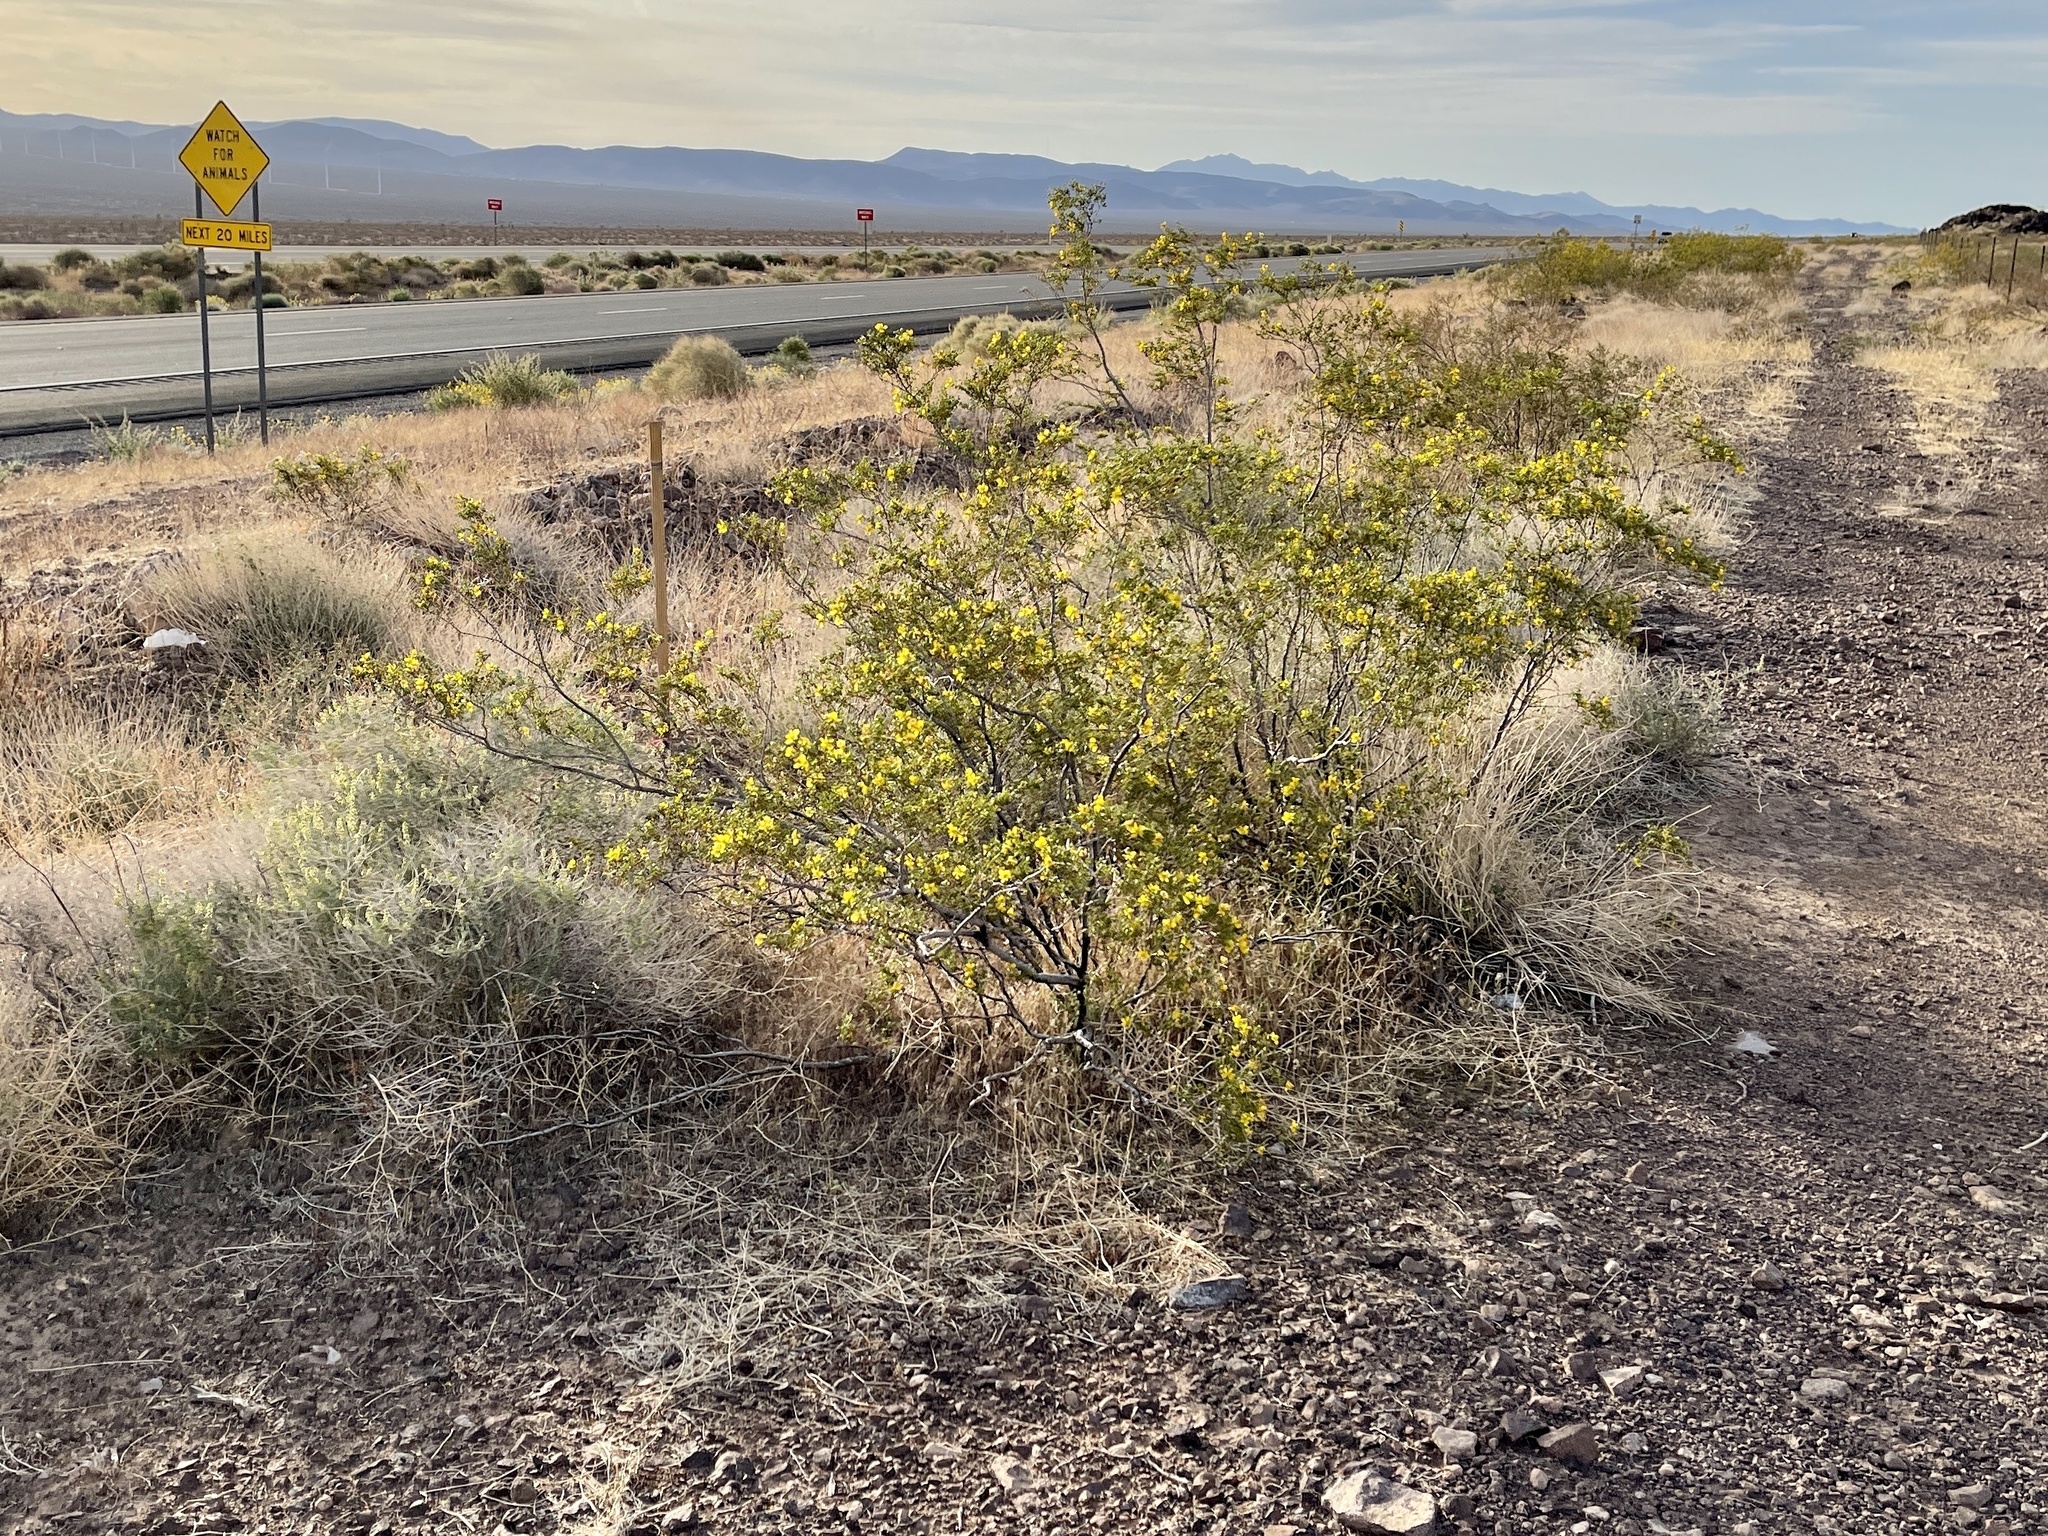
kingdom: Plantae
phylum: Tracheophyta
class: Magnoliopsida
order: Zygophyllales
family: Zygophyllaceae
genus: Larrea
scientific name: Larrea tridentata
